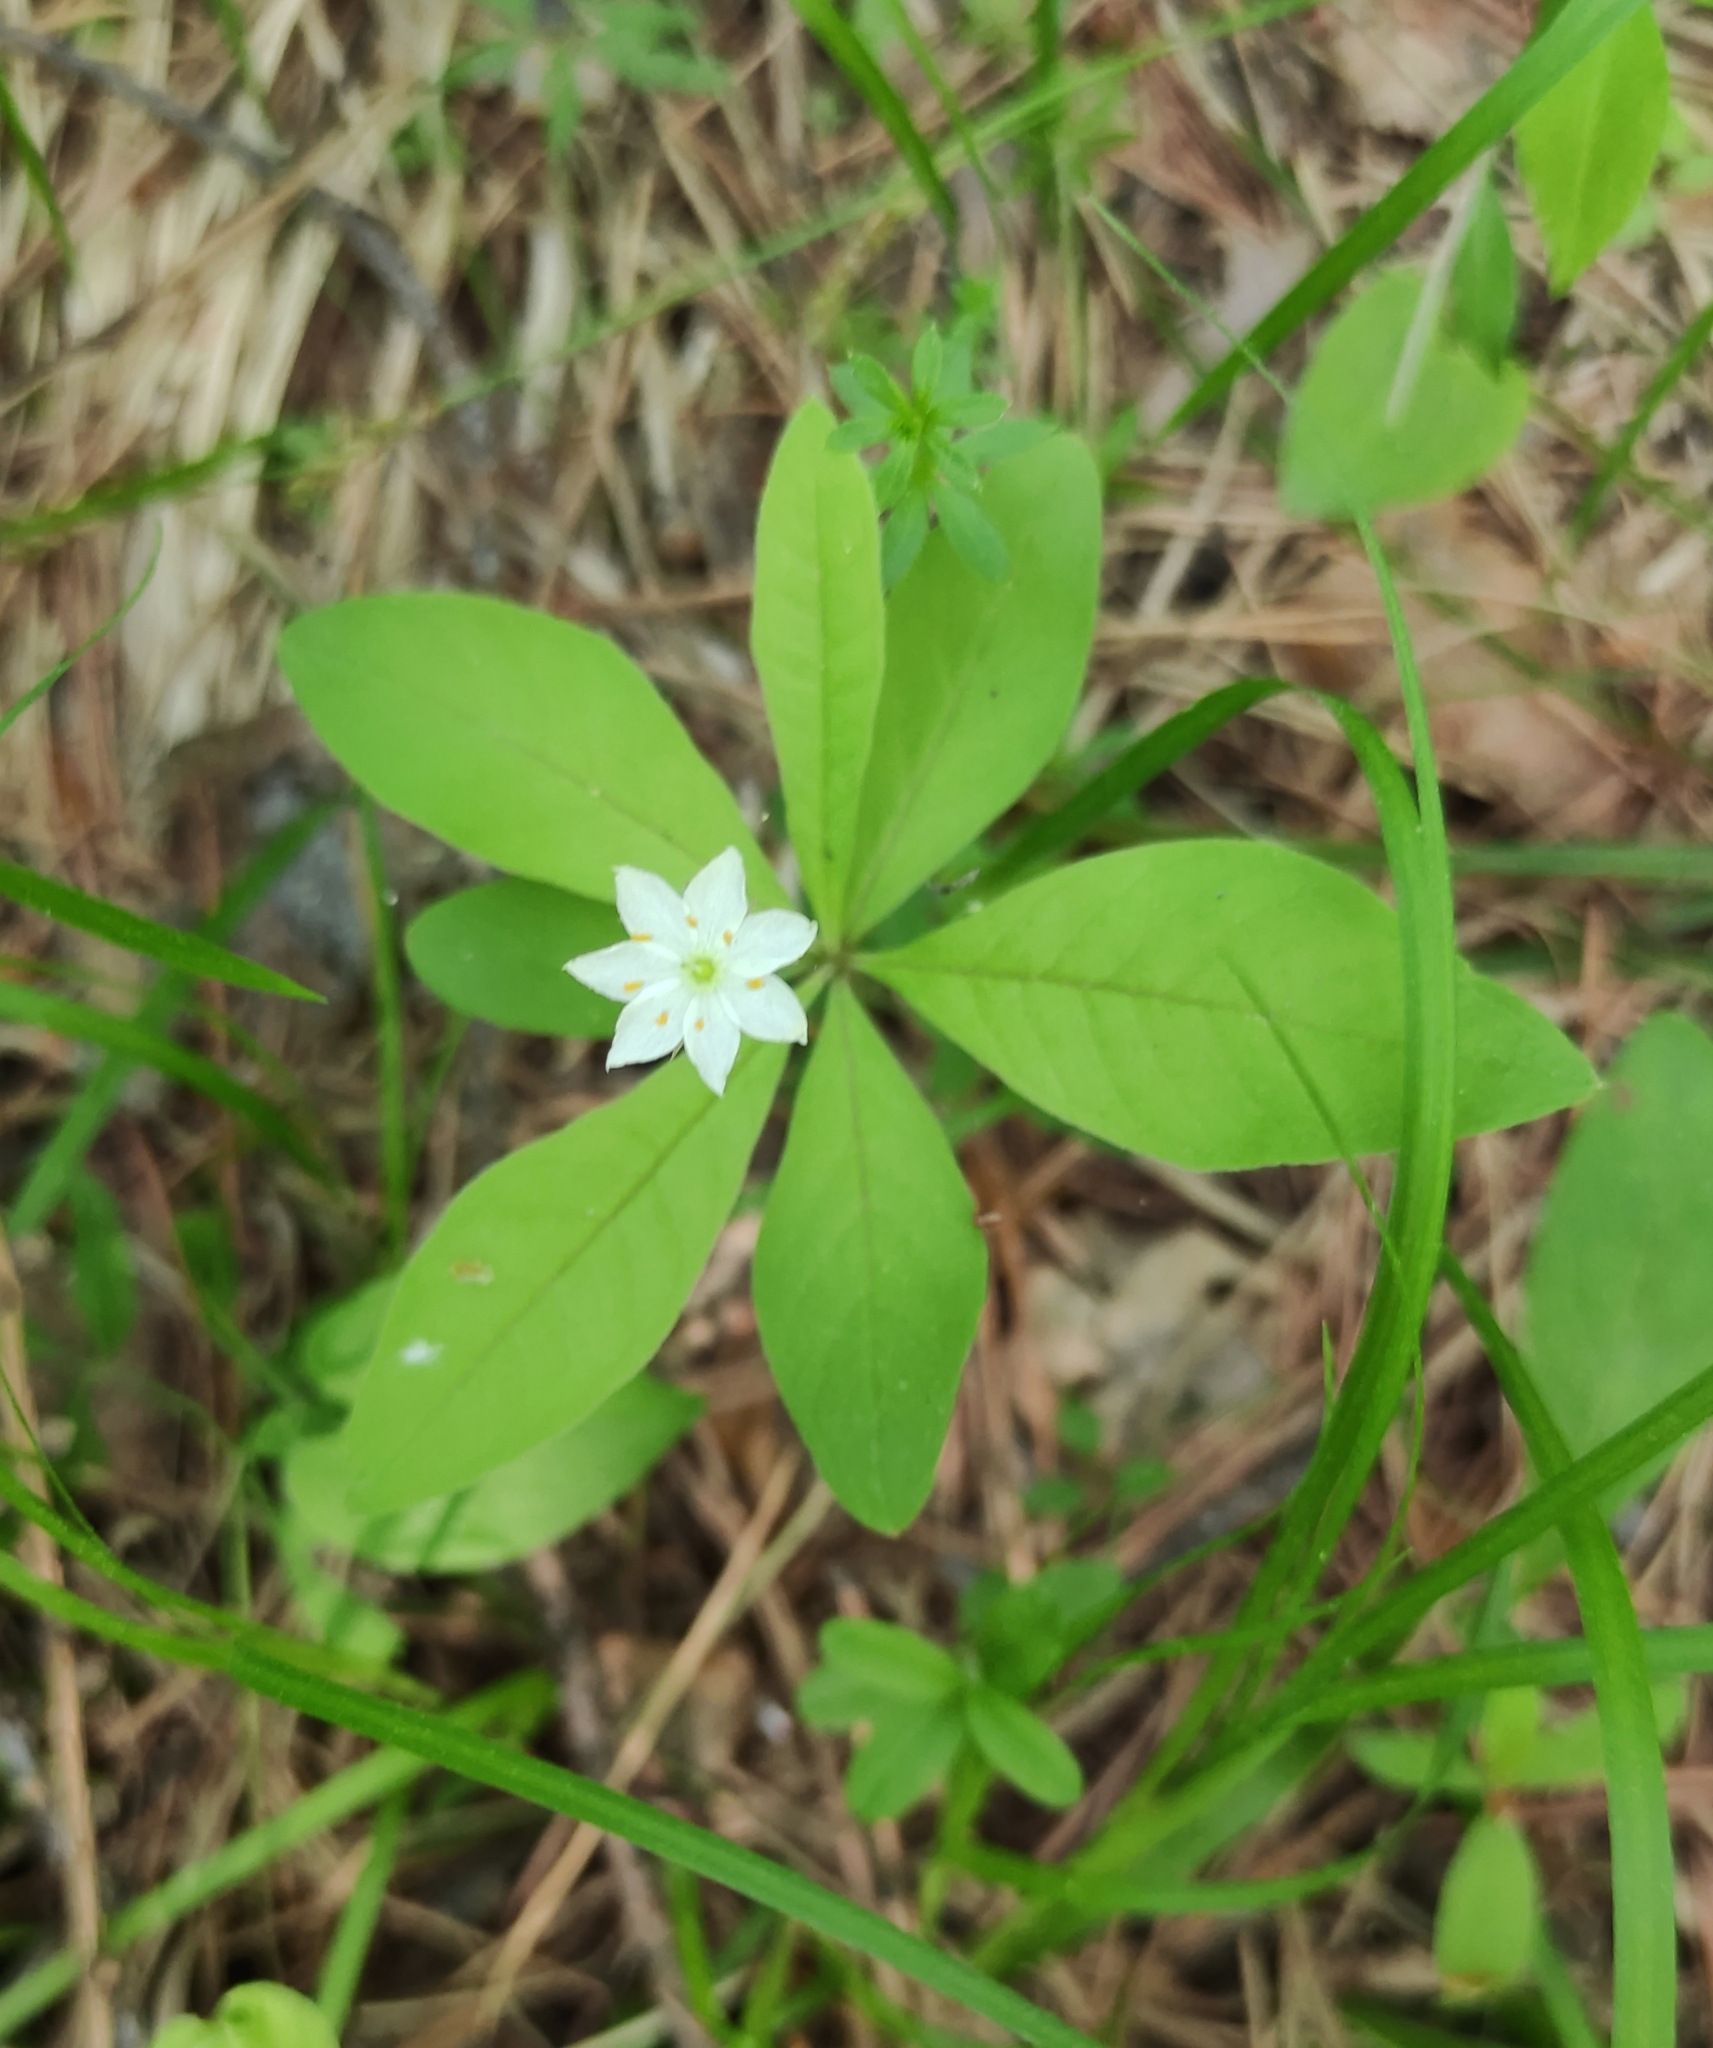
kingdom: Plantae
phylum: Tracheophyta
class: Magnoliopsida
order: Ericales
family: Primulaceae
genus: Lysimachia
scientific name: Lysimachia europaea
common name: Arctic starflower
